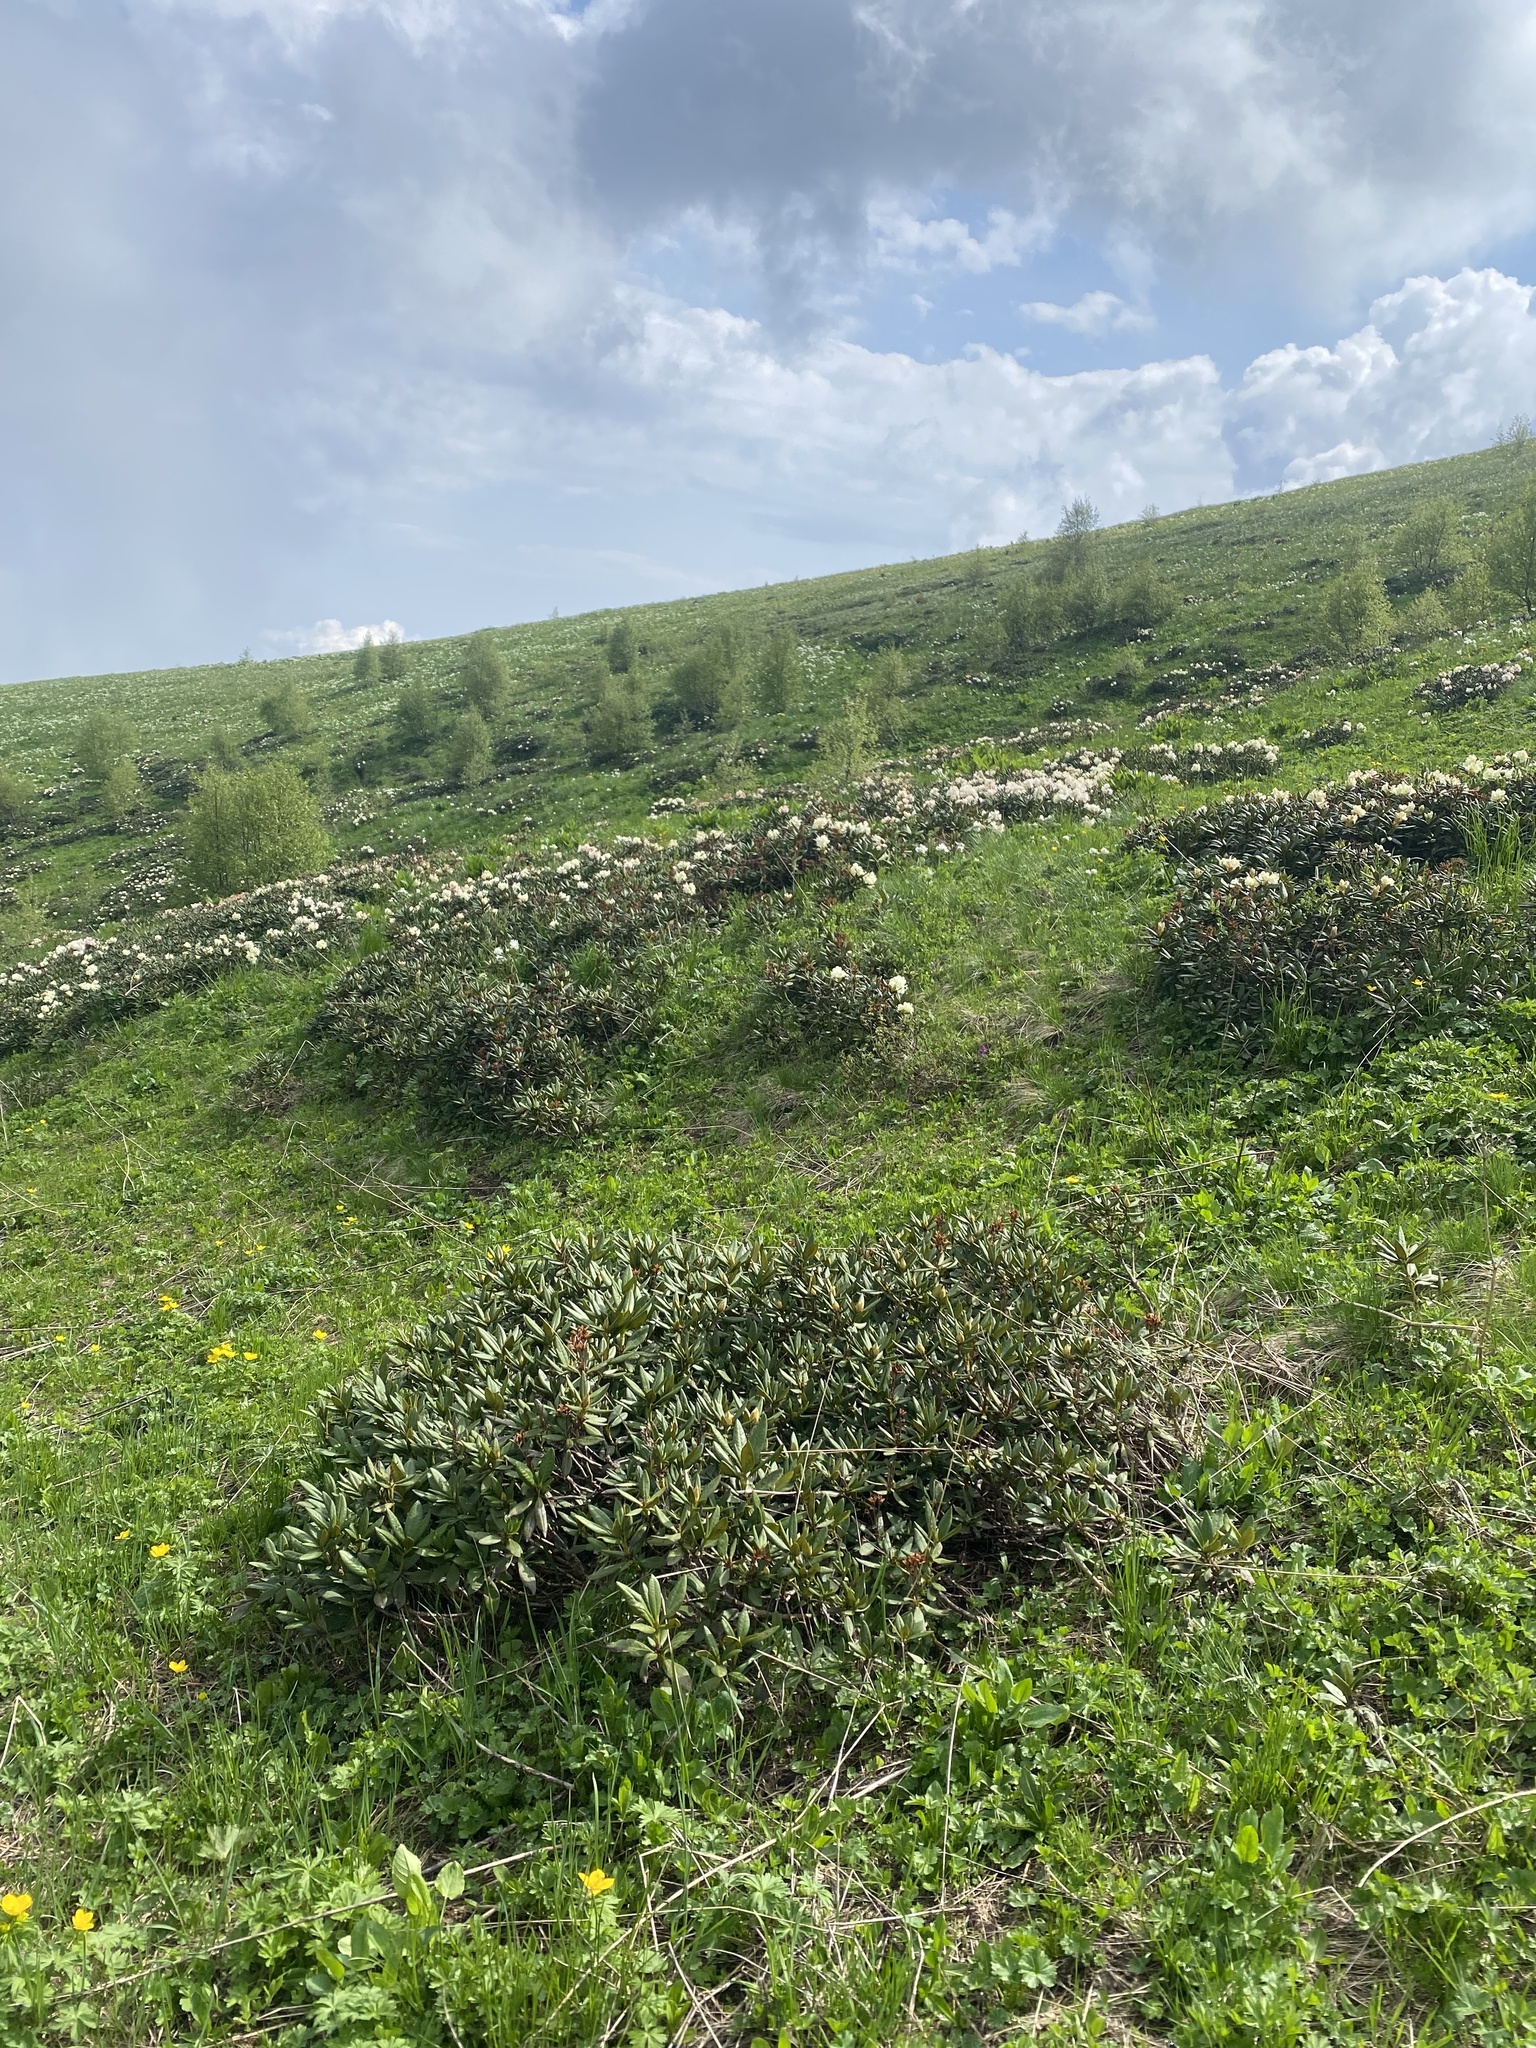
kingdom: Plantae
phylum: Tracheophyta
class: Magnoliopsida
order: Ericales
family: Ericaceae
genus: Rhododendron
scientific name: Rhododendron caucasicum
